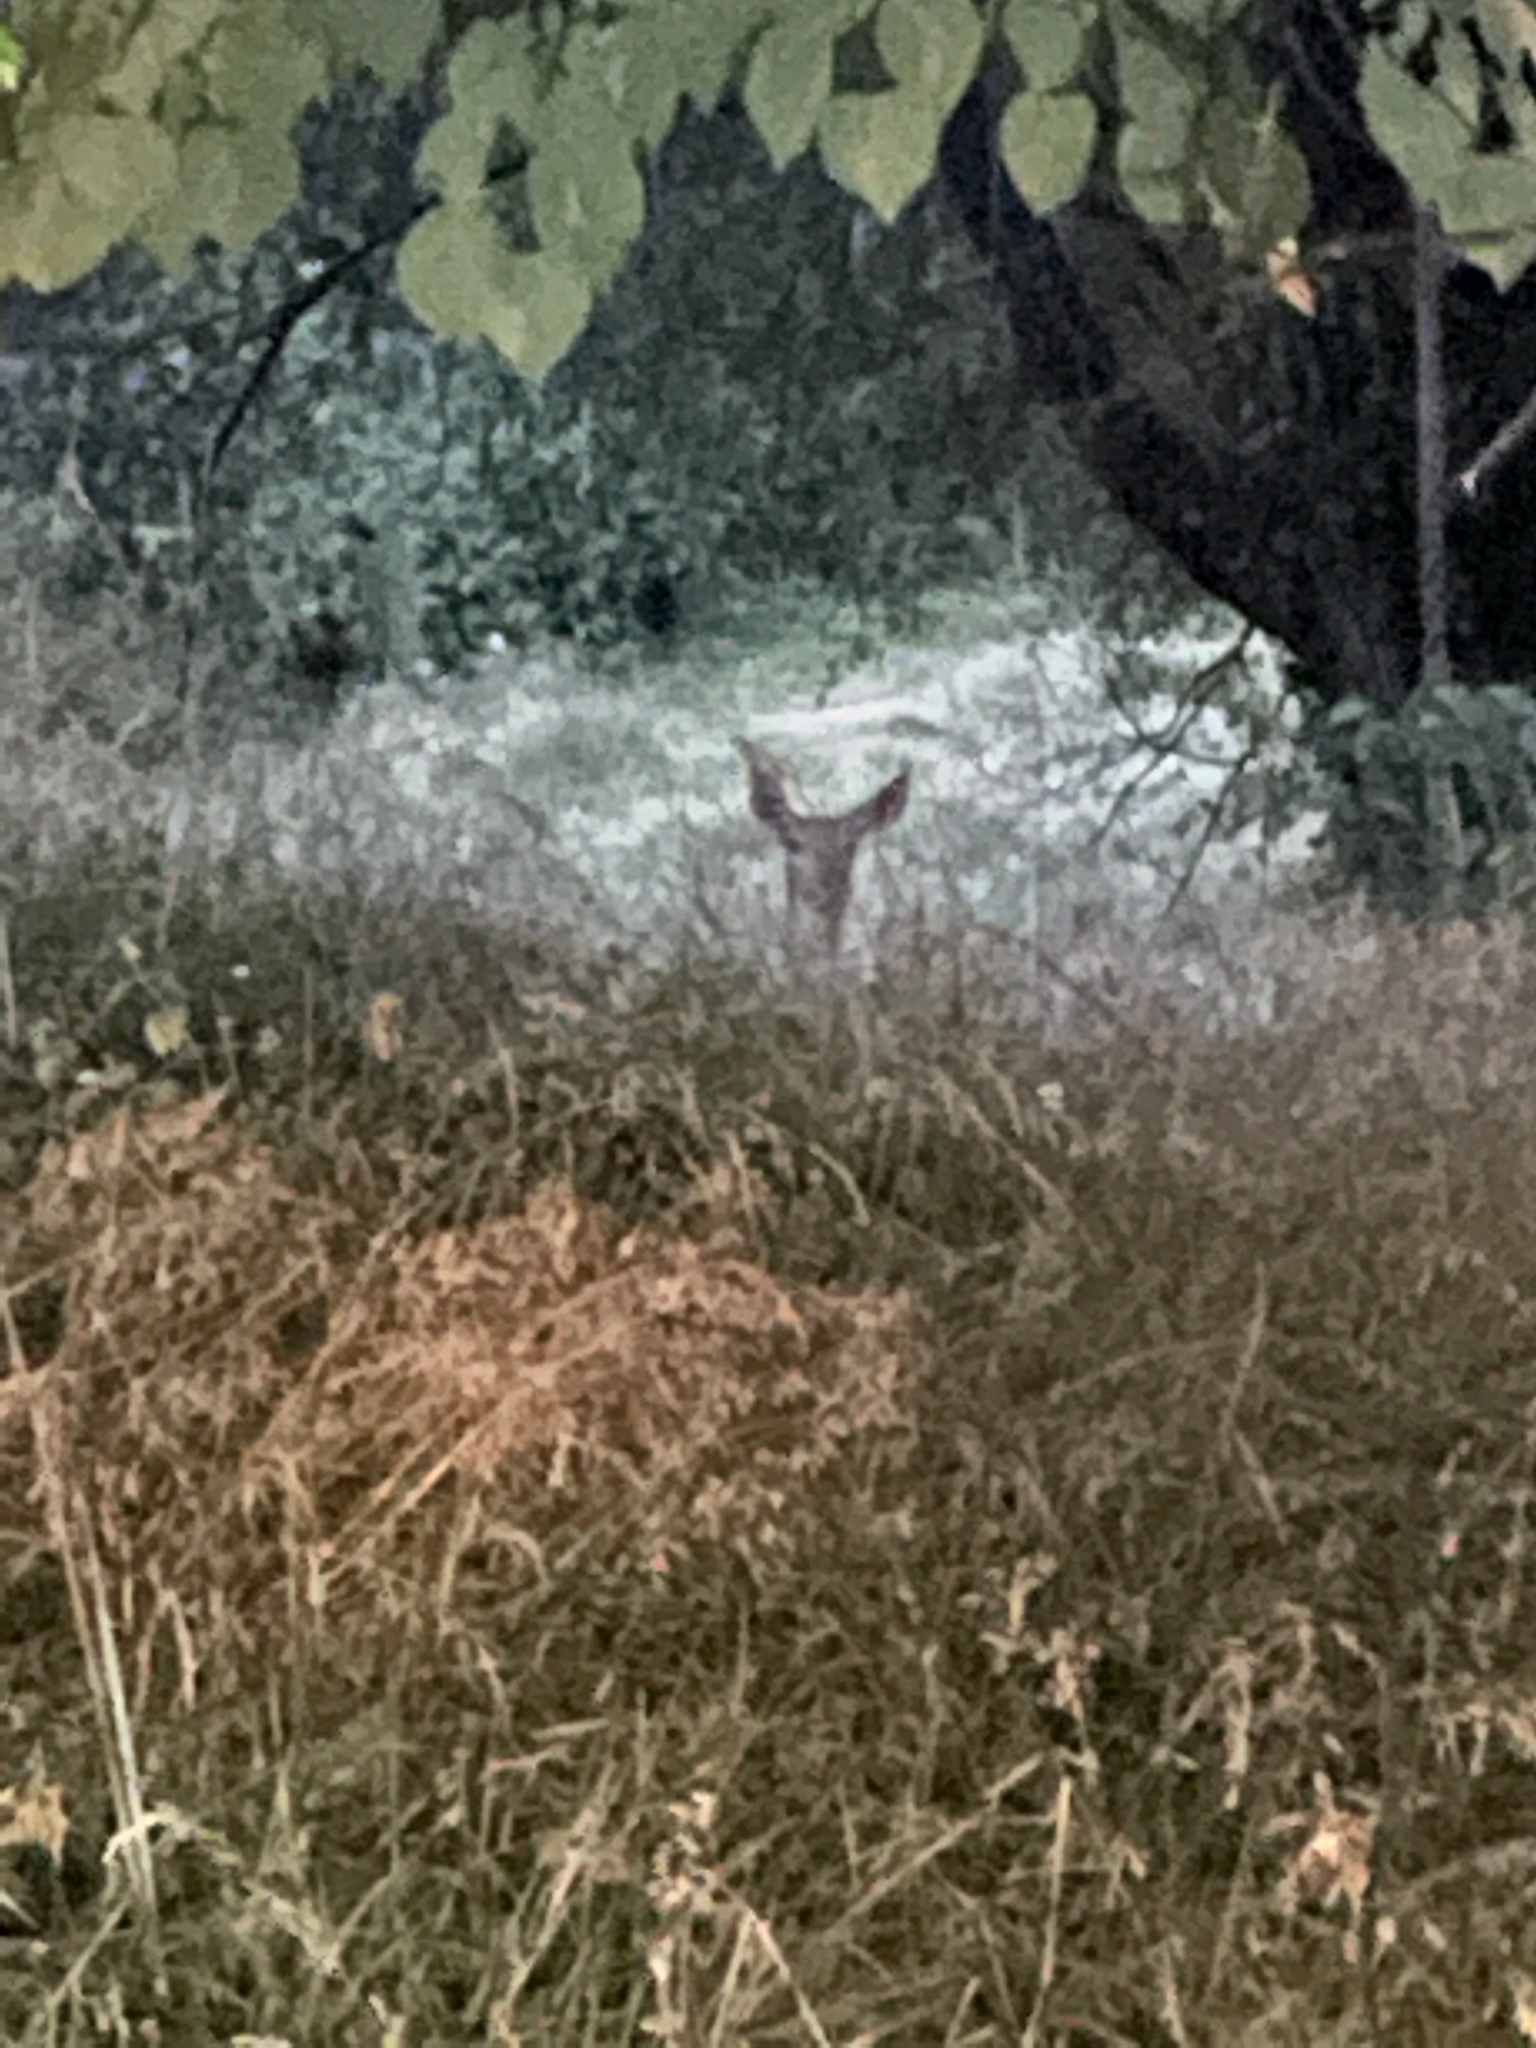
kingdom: Animalia
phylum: Chordata
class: Mammalia
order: Artiodactyla
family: Cervidae
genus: Odocoileus
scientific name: Odocoileus virginianus
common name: White-tailed deer
